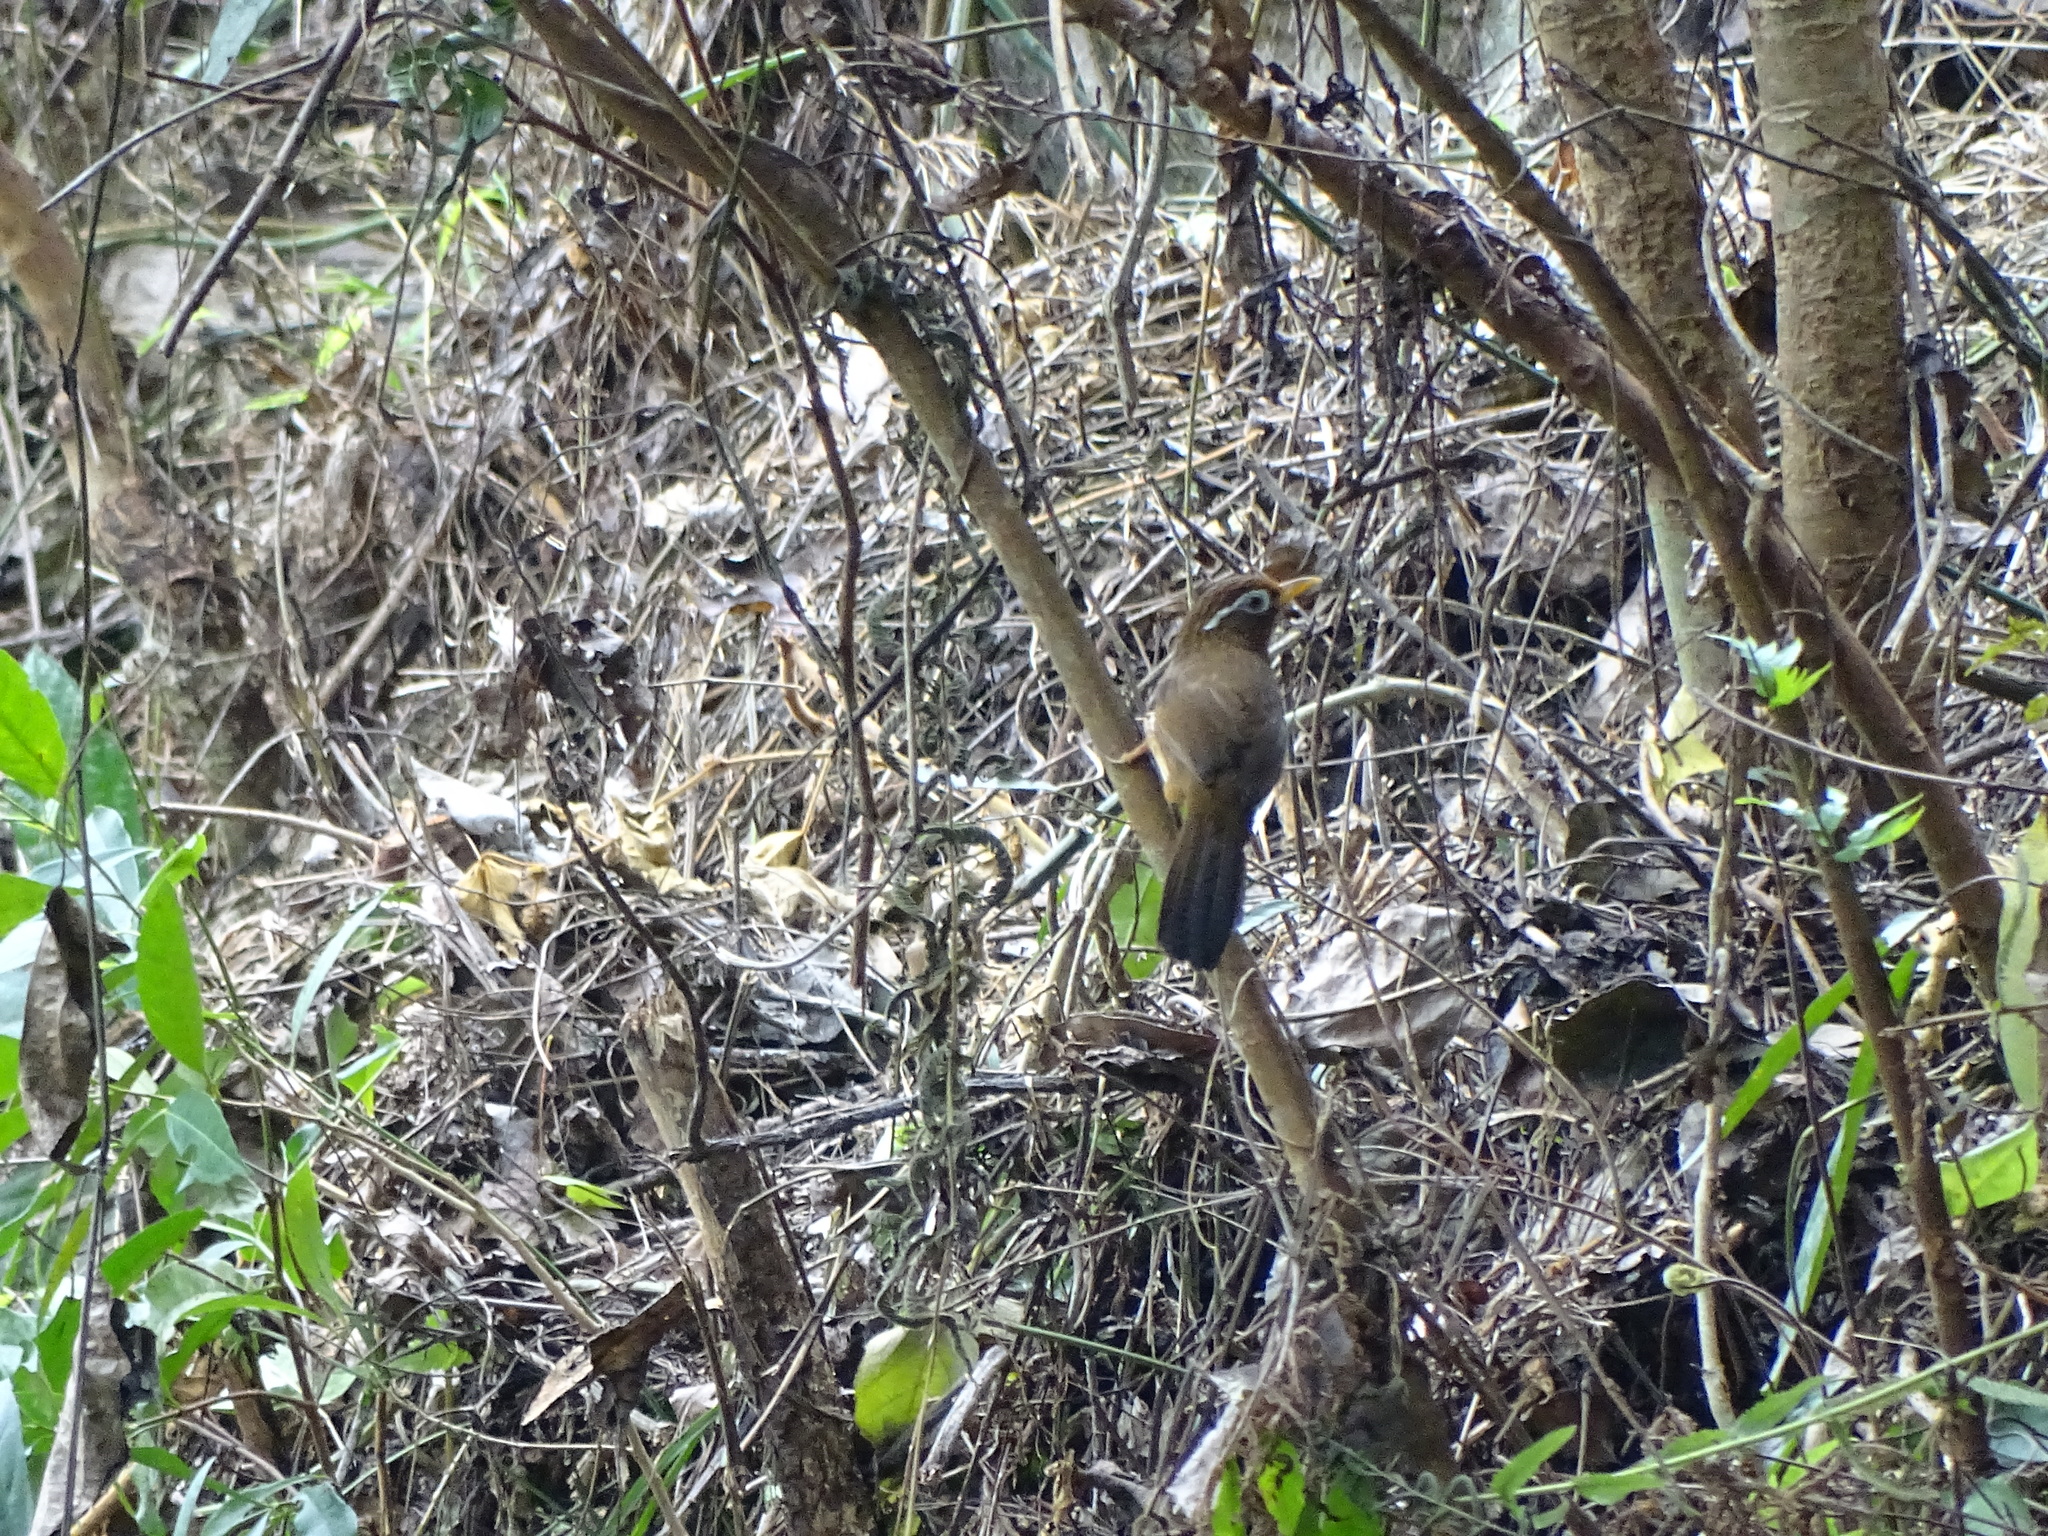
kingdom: Animalia
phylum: Chordata
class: Aves
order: Passeriformes
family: Leiothrichidae
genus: Garrulax
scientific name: Garrulax canorus
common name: Chinese hwamei
